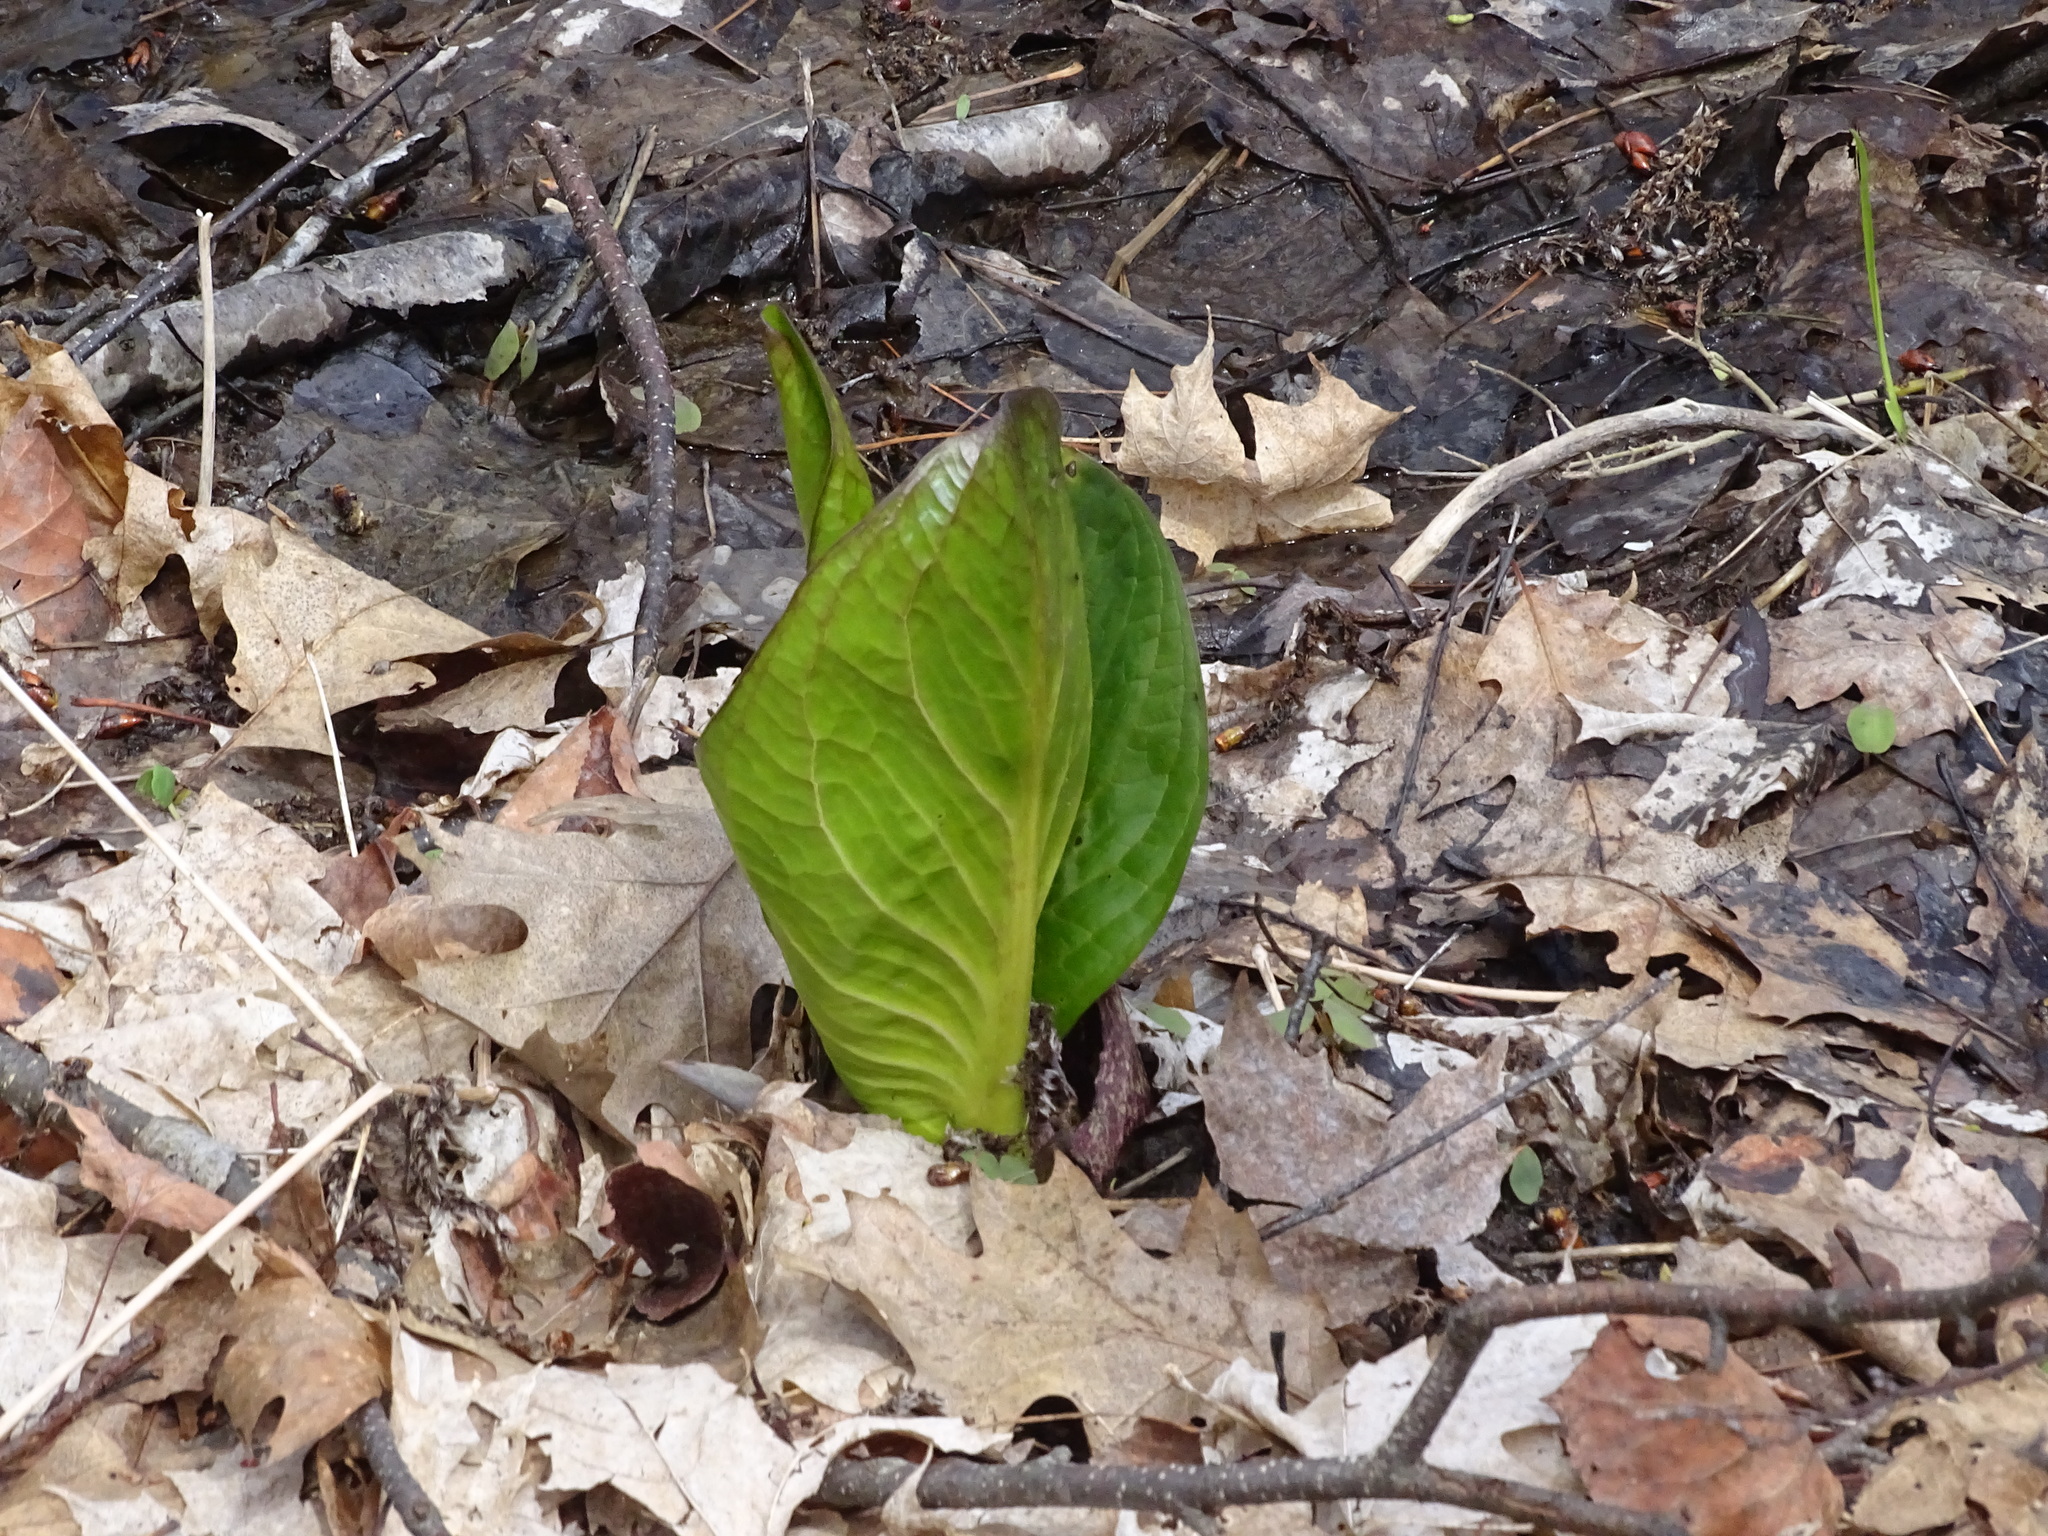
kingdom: Plantae
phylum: Tracheophyta
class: Liliopsida
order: Alismatales
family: Araceae
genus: Symplocarpus
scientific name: Symplocarpus foetidus
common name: Eastern skunk cabbage
